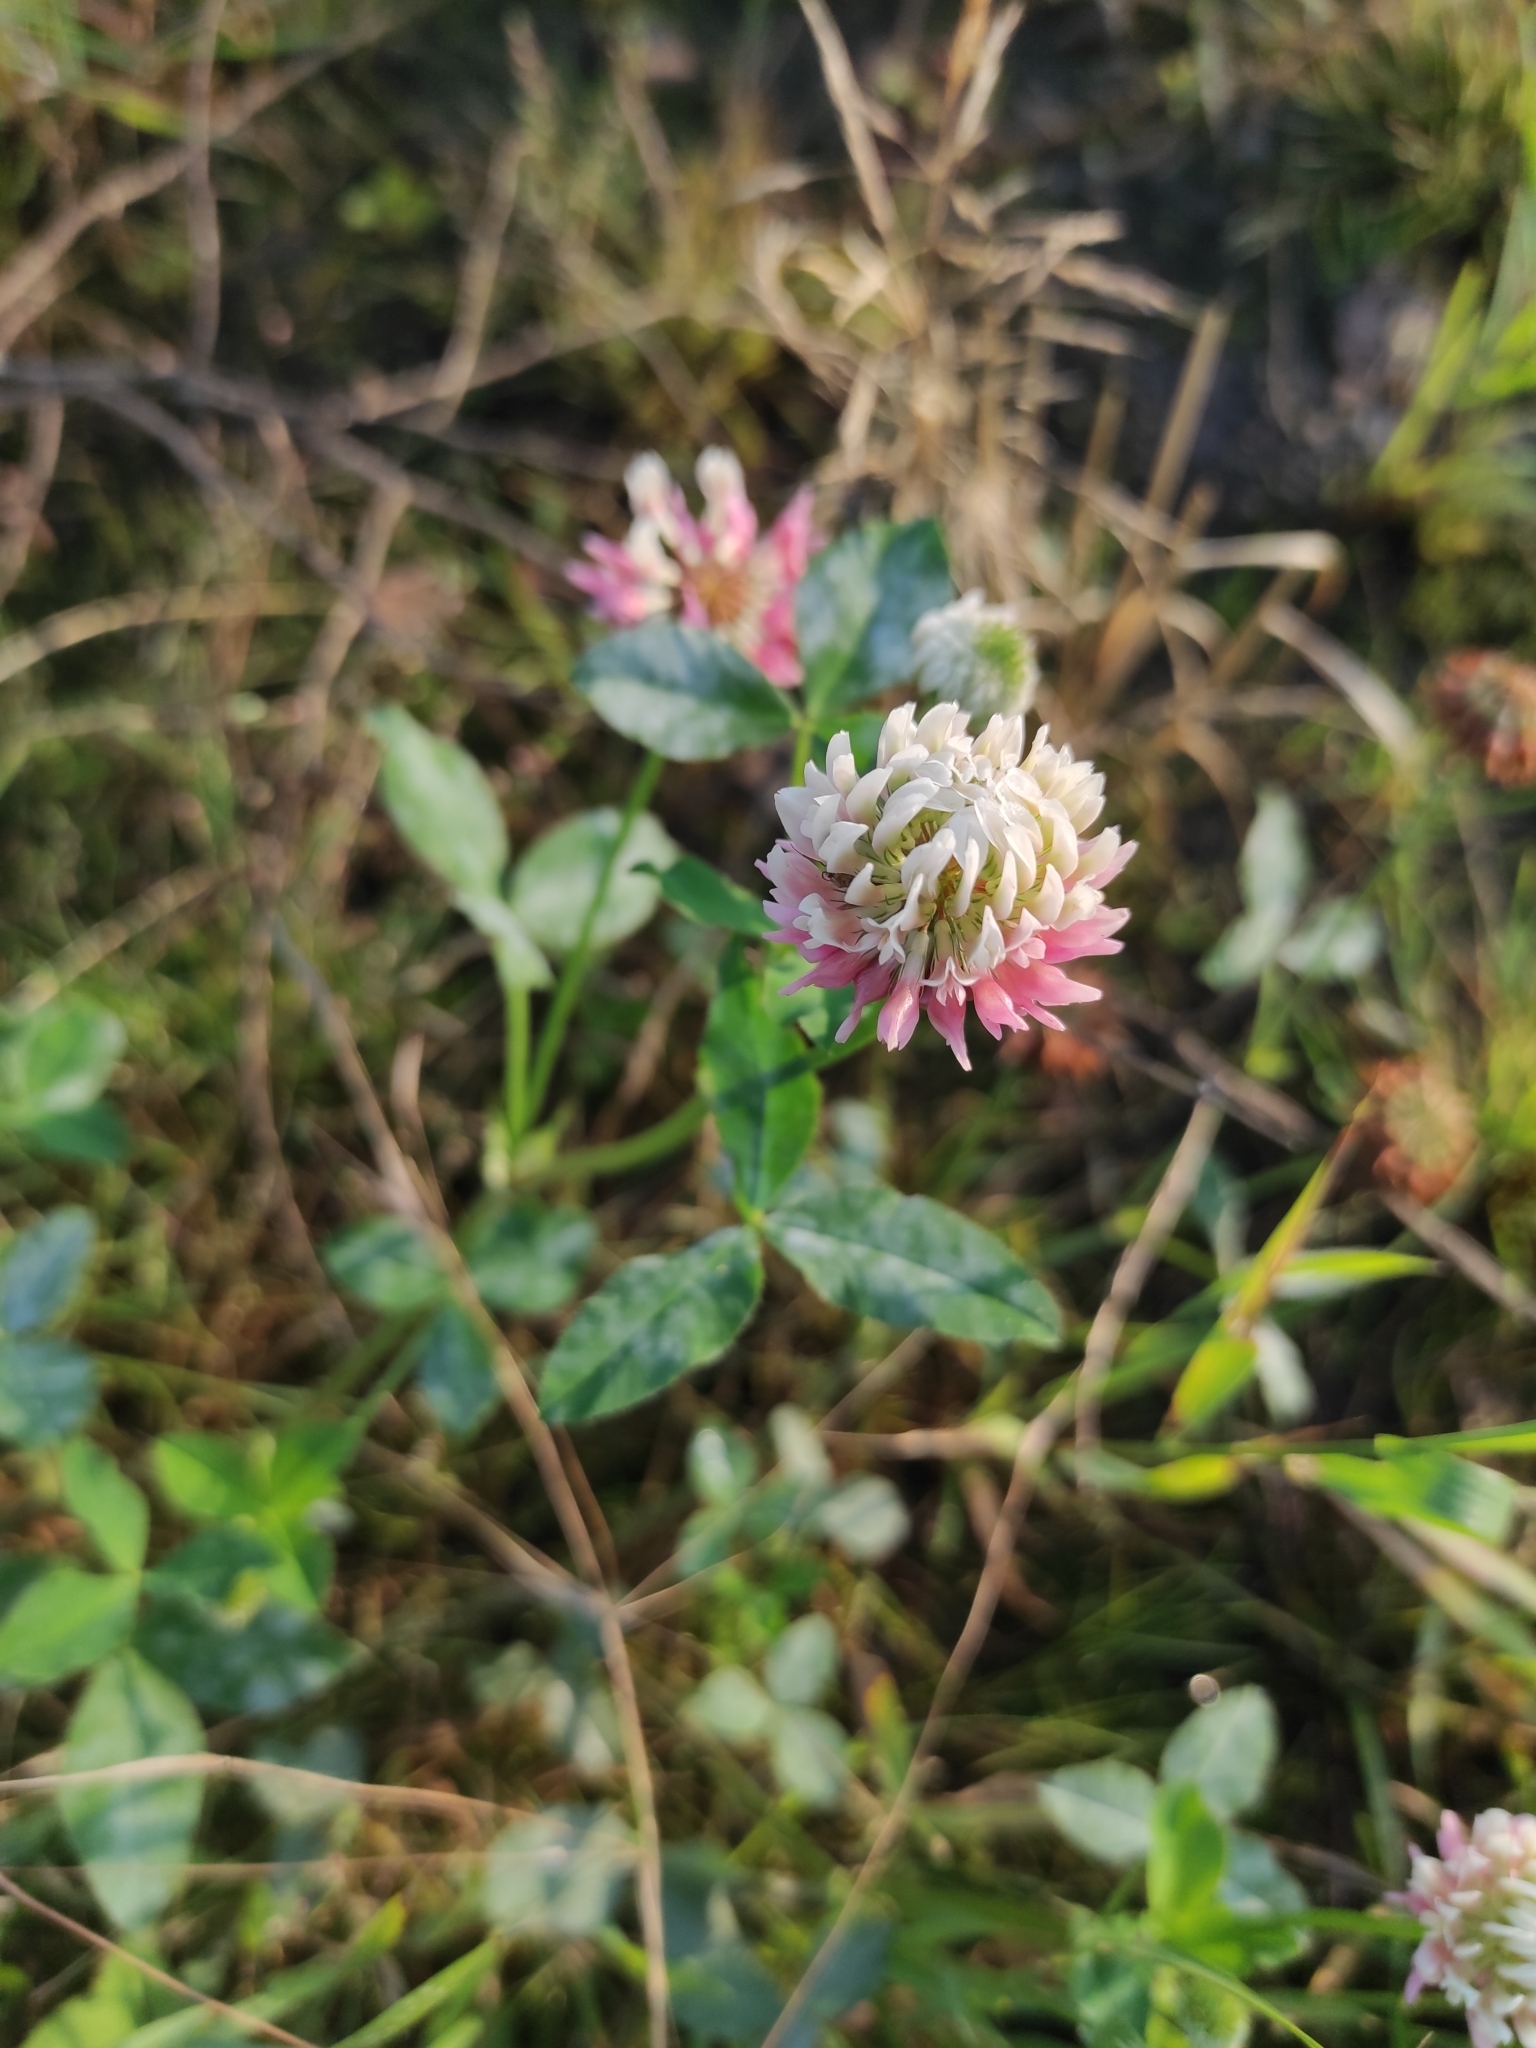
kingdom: Plantae
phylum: Tracheophyta
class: Magnoliopsida
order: Fabales
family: Fabaceae
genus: Trifolium
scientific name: Trifolium hybridum
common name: Alsike clover
